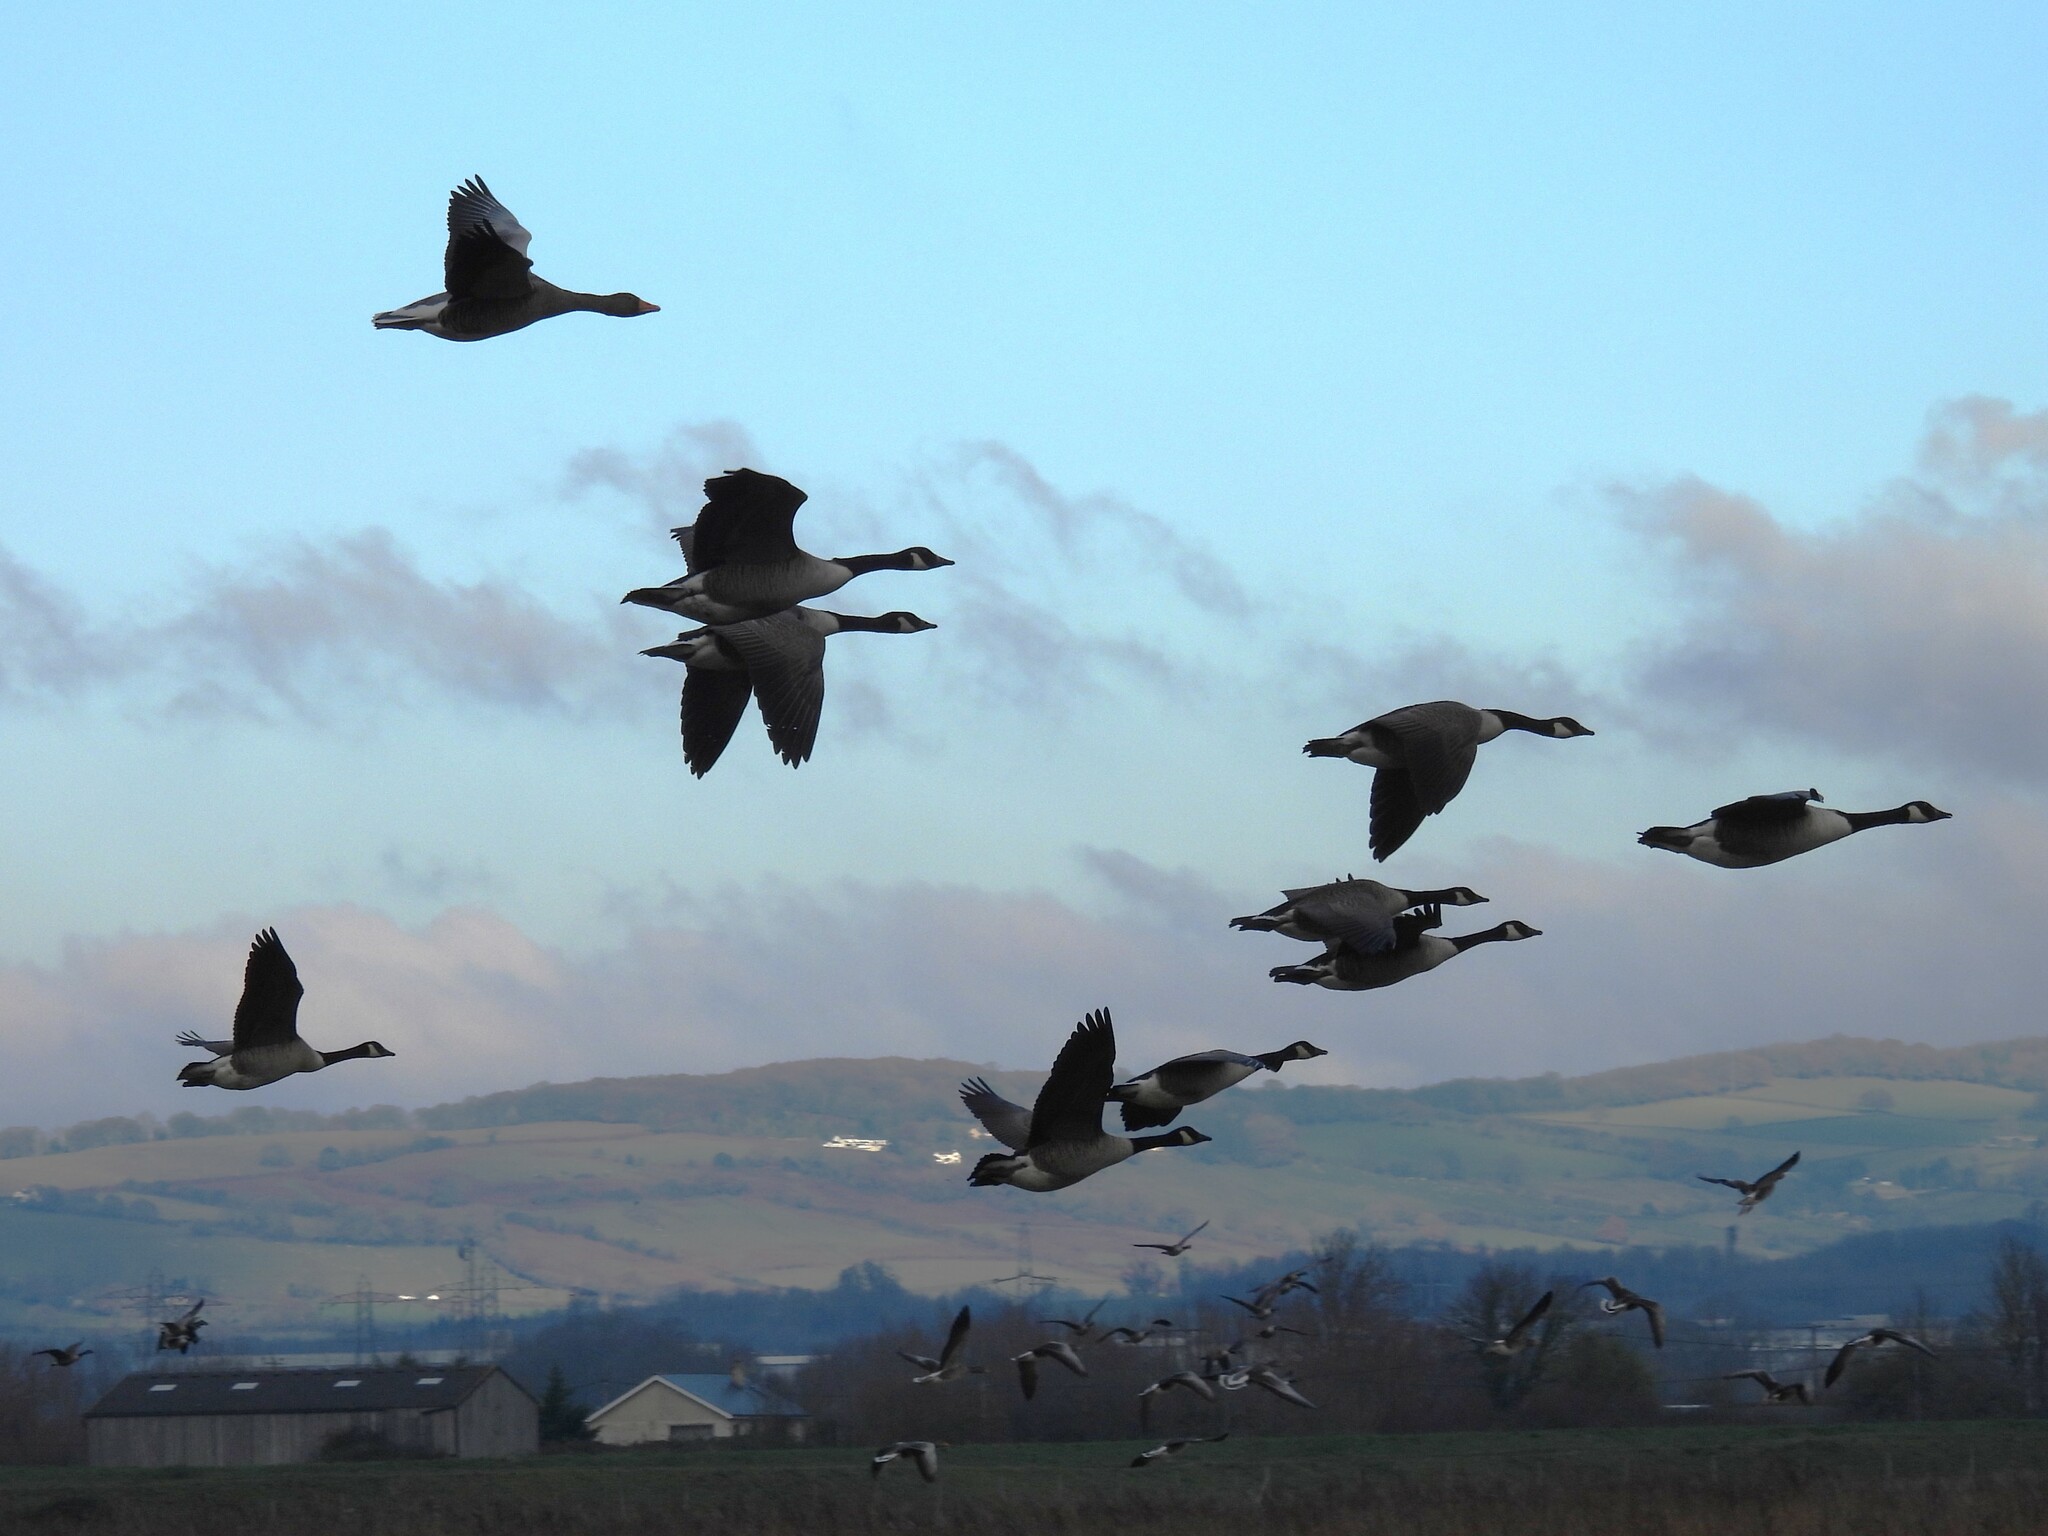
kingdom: Animalia
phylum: Chordata
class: Aves
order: Anseriformes
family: Anatidae
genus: Branta
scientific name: Branta canadensis
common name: Canada goose
